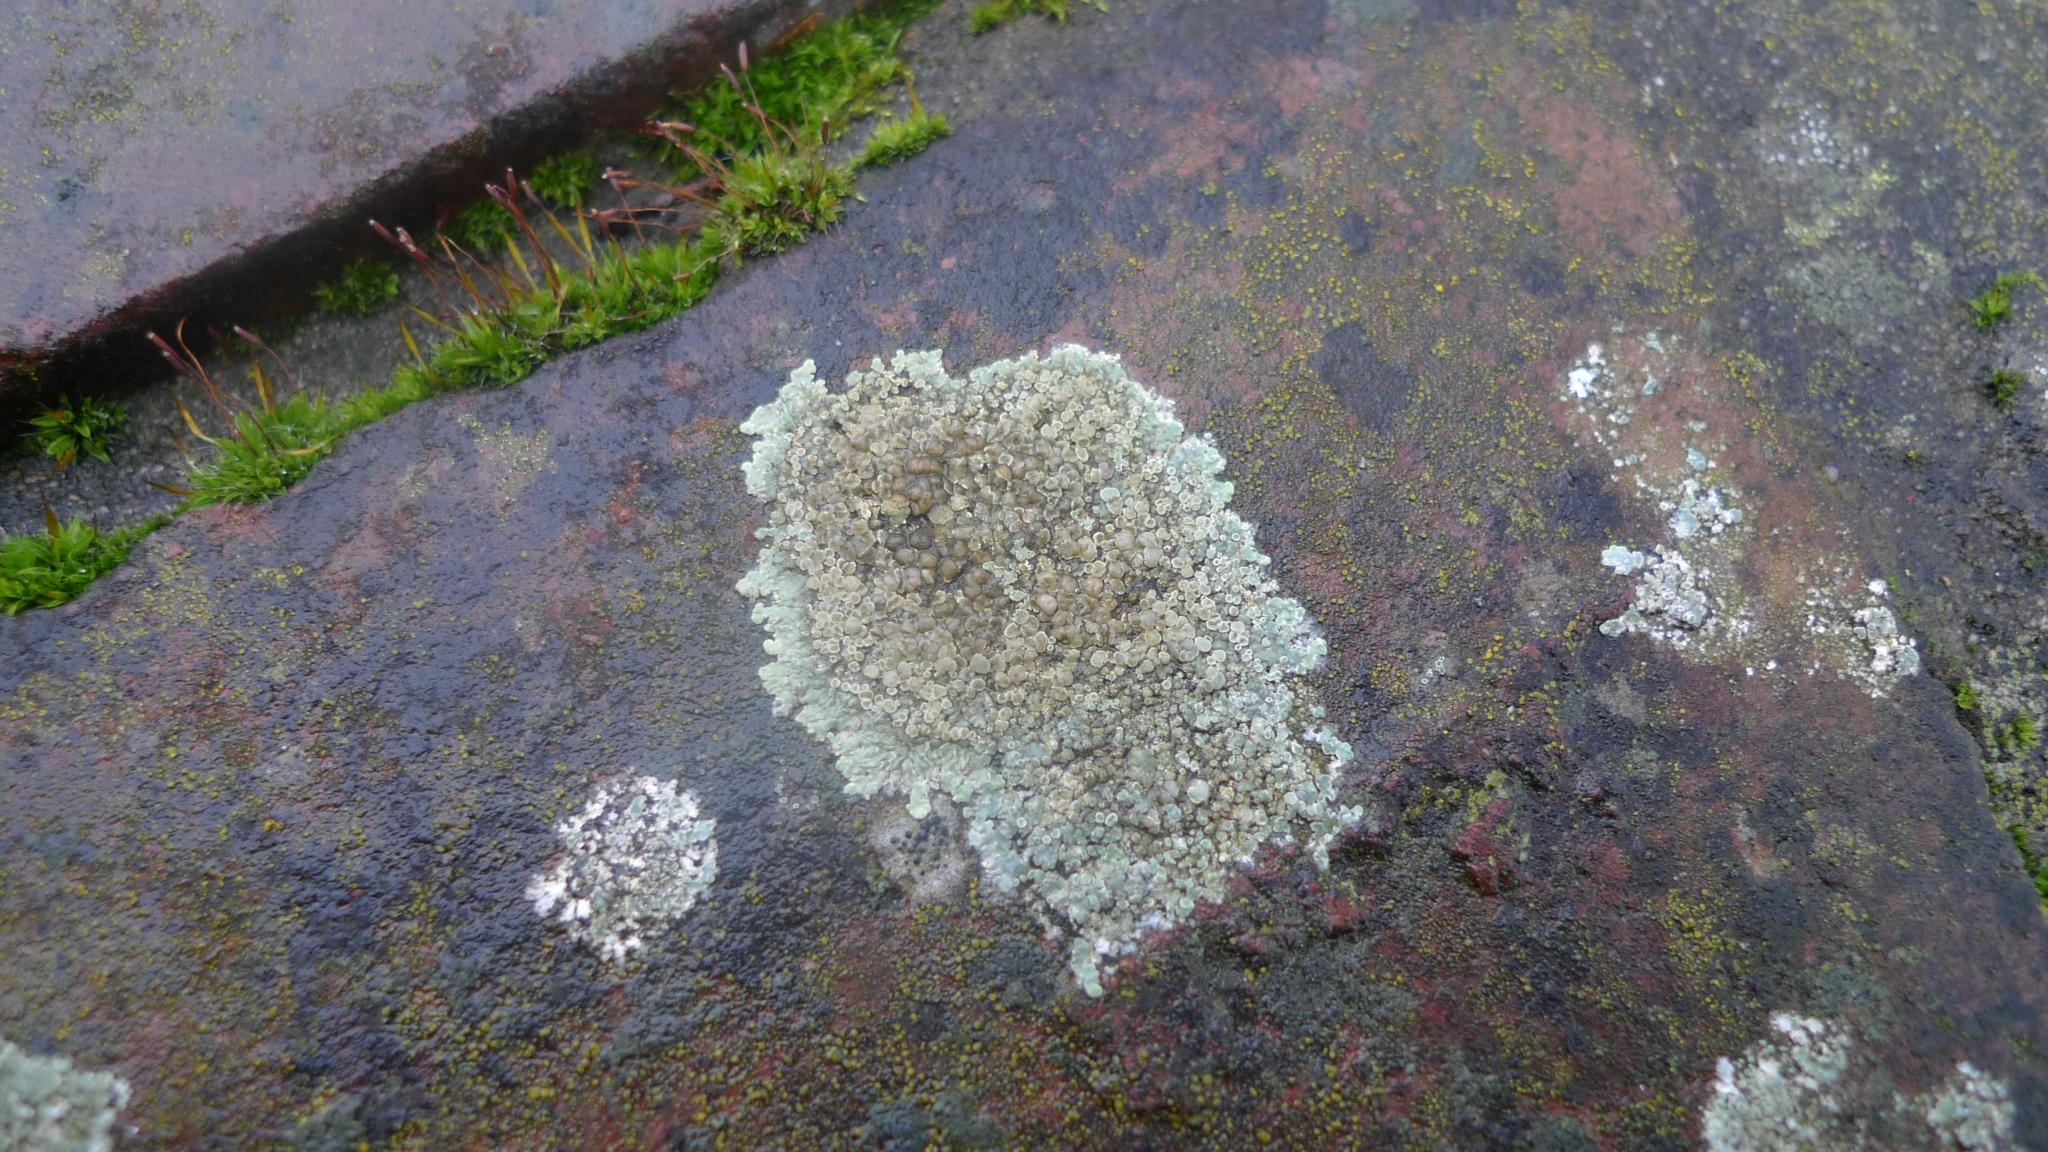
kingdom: Fungi
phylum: Ascomycota
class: Lecanoromycetes
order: Lecanorales
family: Lecanoraceae
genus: Protoparmeliopsis
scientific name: Protoparmeliopsis muralis
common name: Stonewall rim lichen
